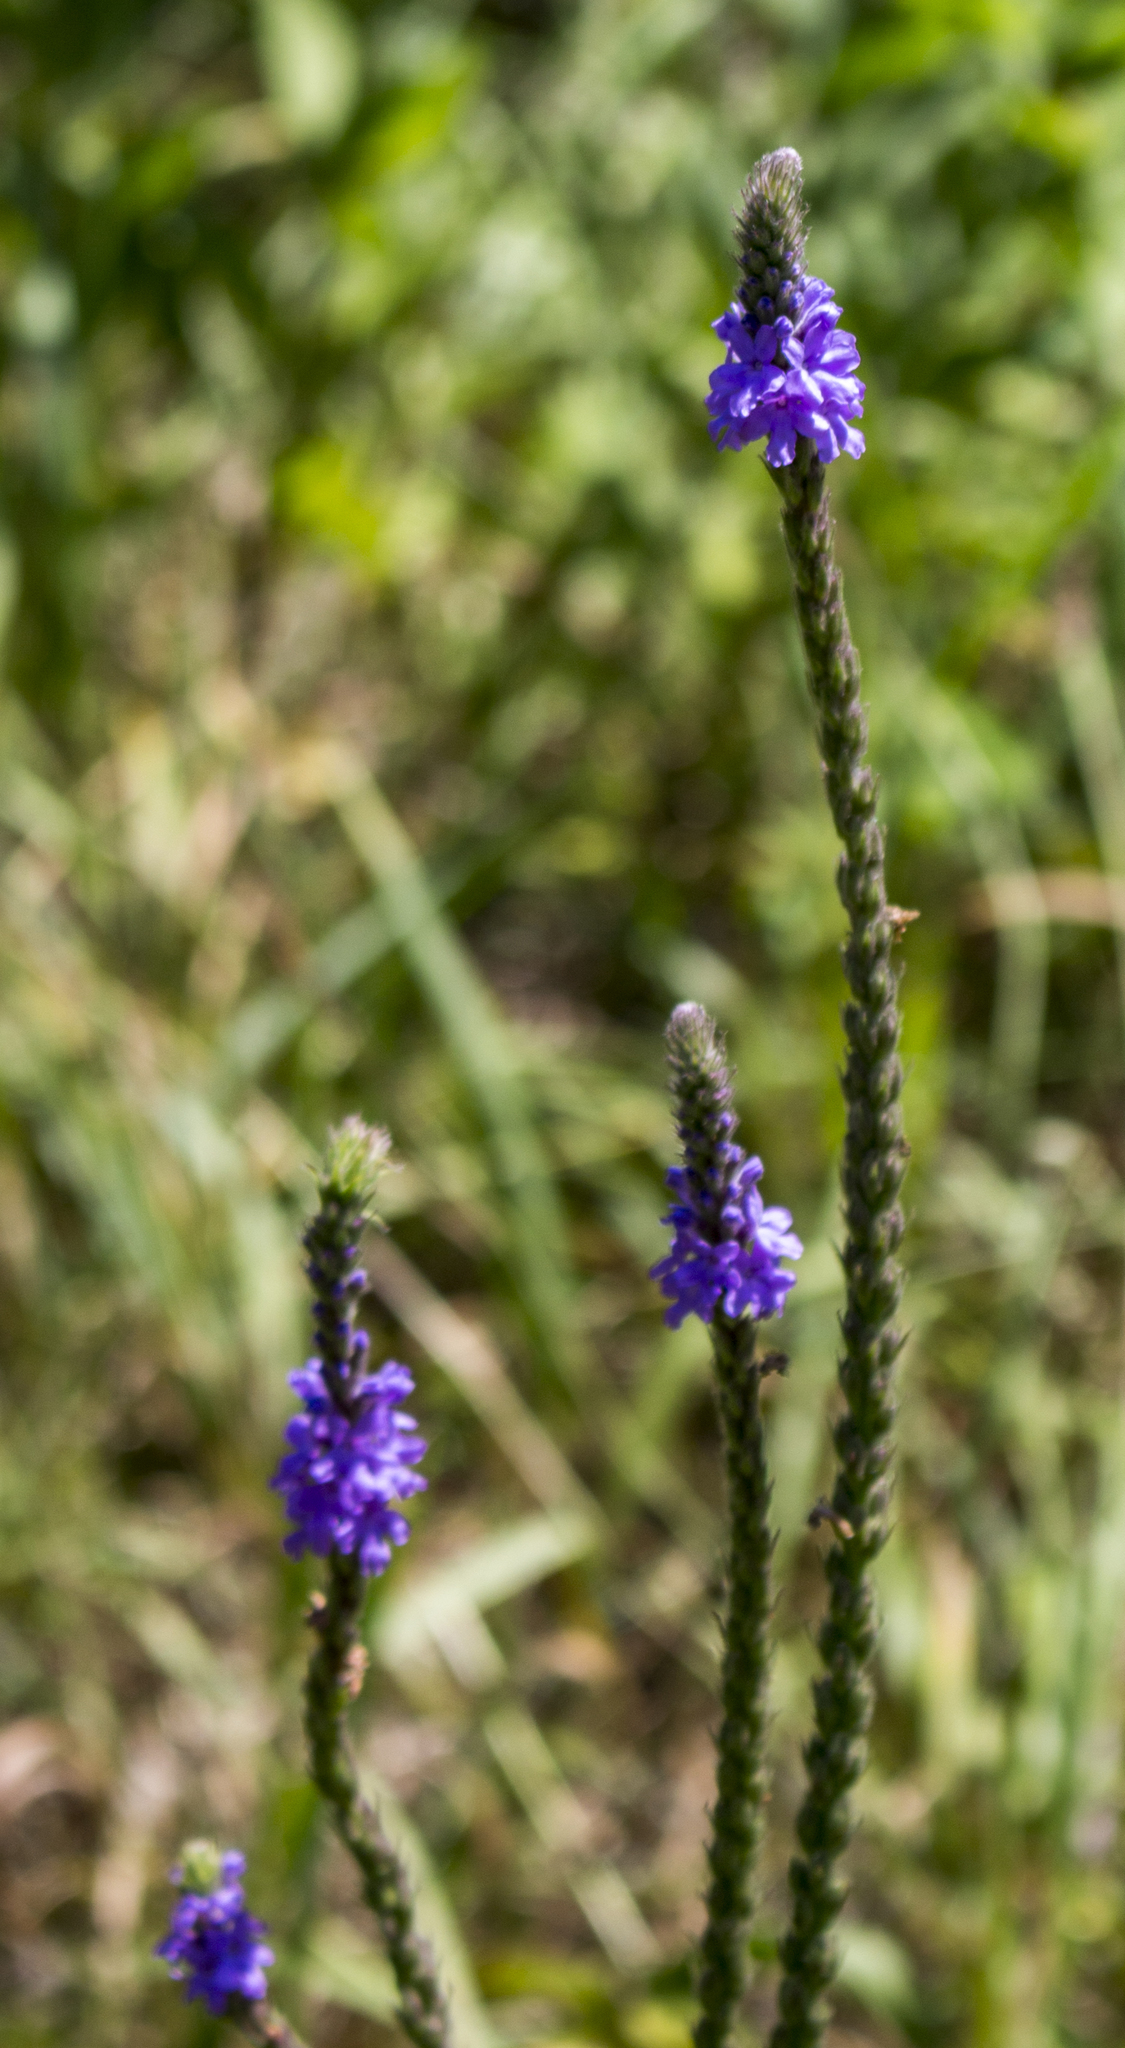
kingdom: Plantae
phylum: Tracheophyta
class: Magnoliopsida
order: Lamiales
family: Verbenaceae
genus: Verbena
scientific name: Verbena stricta
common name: Hoary vervain
